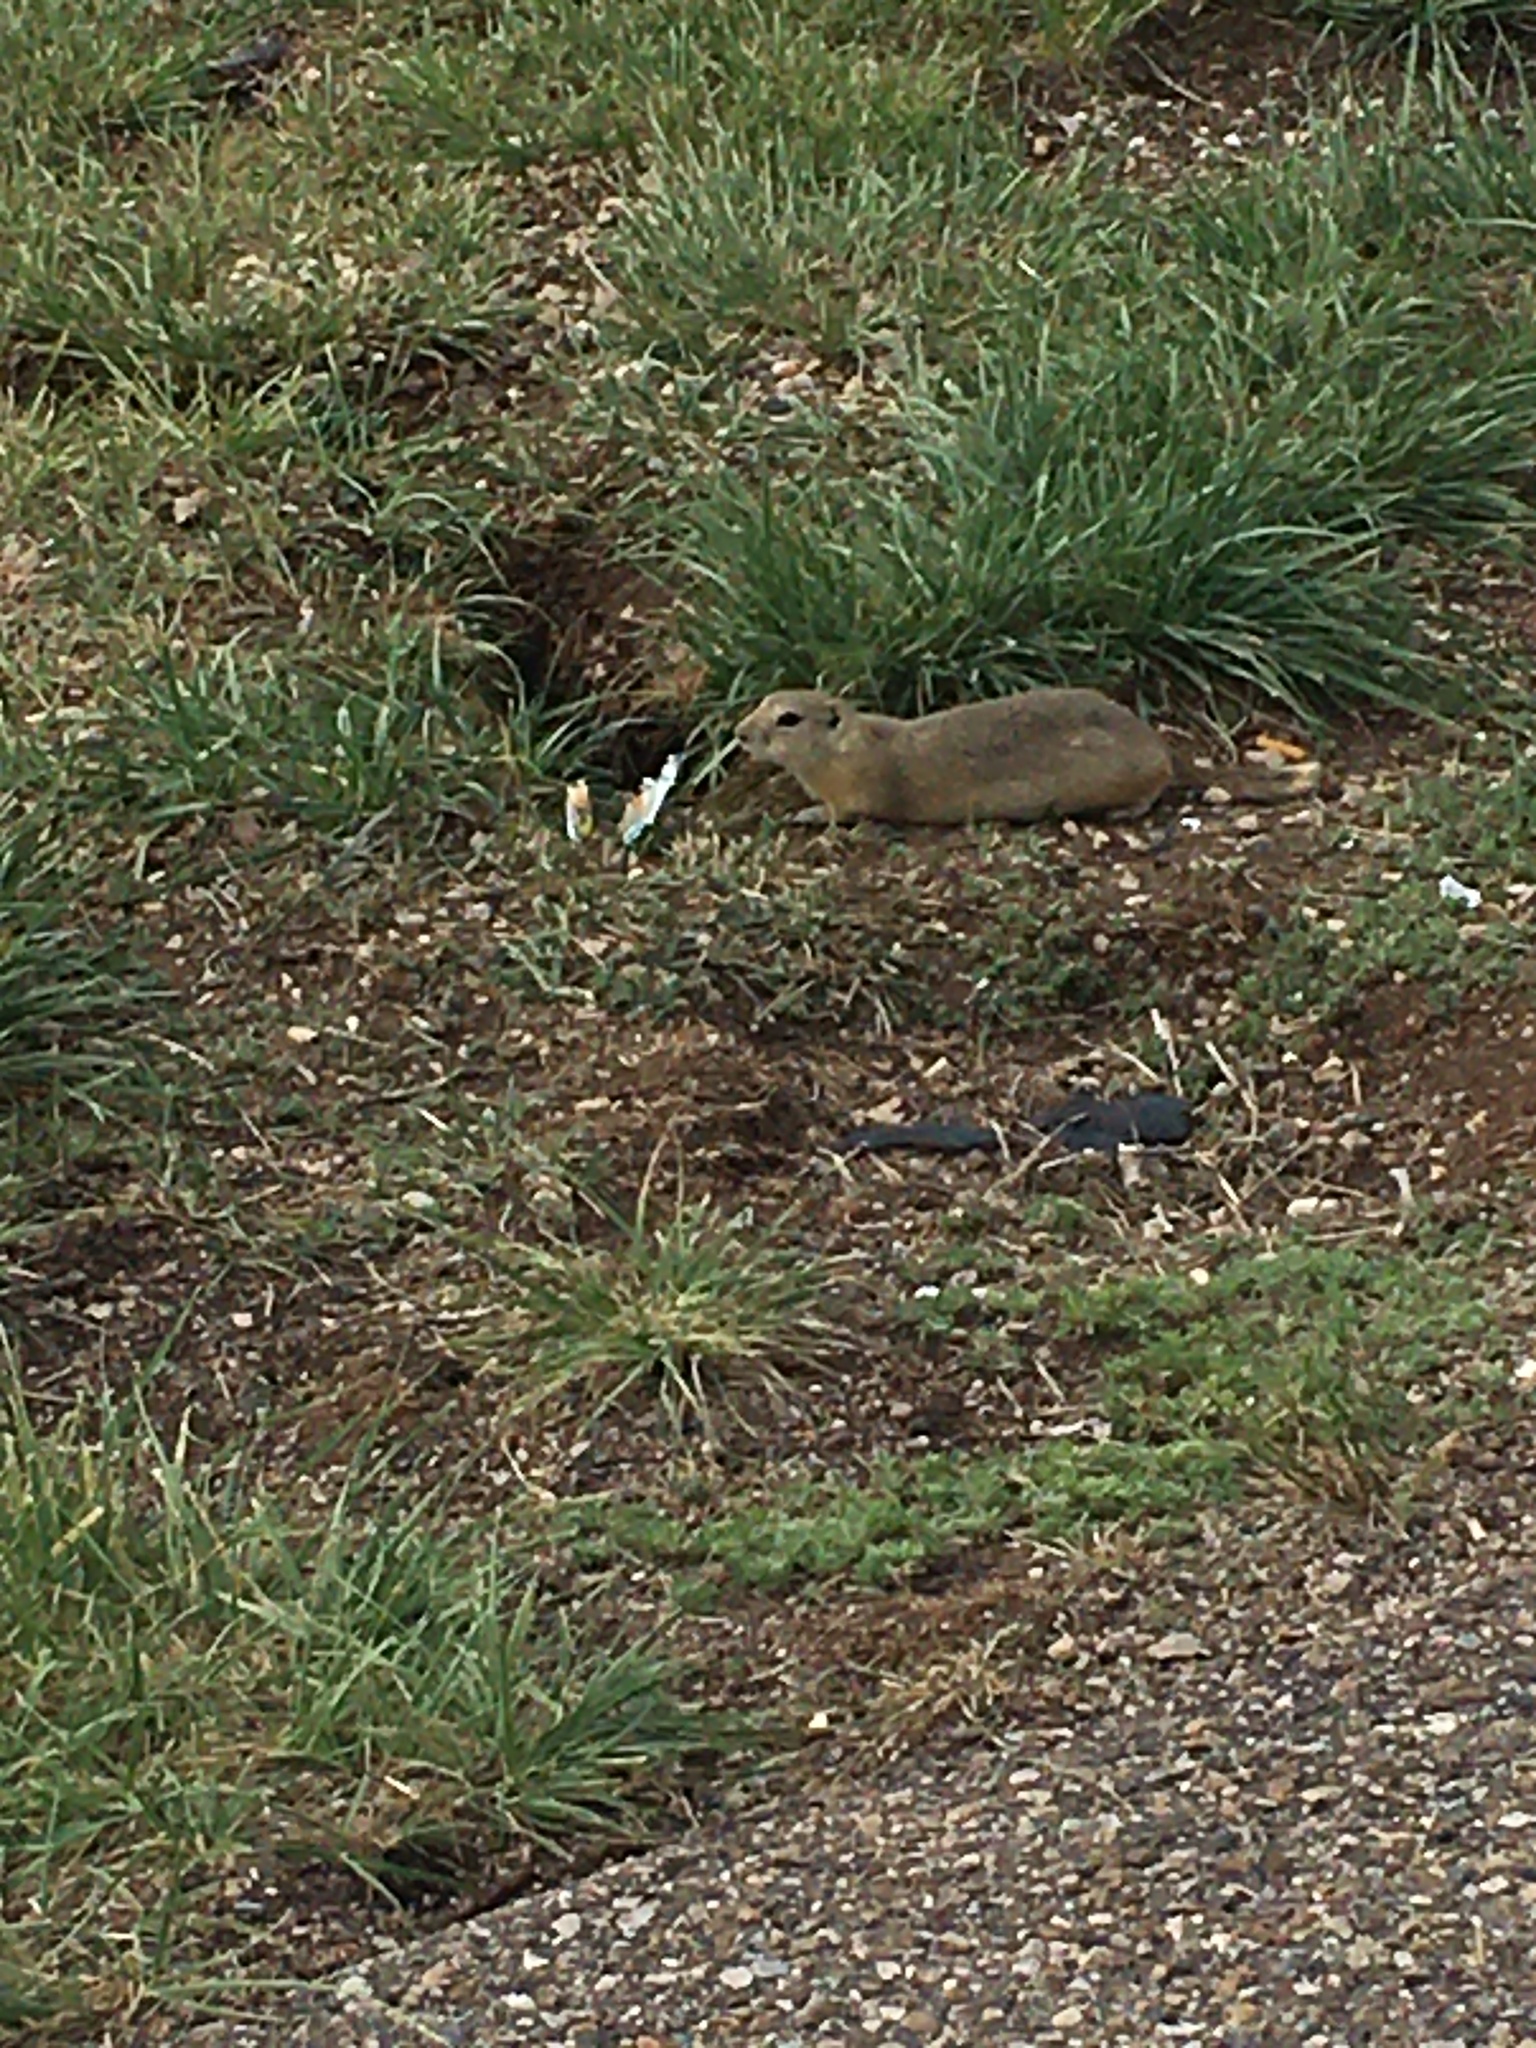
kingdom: Animalia
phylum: Chordata
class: Mammalia
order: Rodentia
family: Sciuridae
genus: Urocitellus
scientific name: Urocitellus richardsonii
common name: Richardson's ground squirrel
